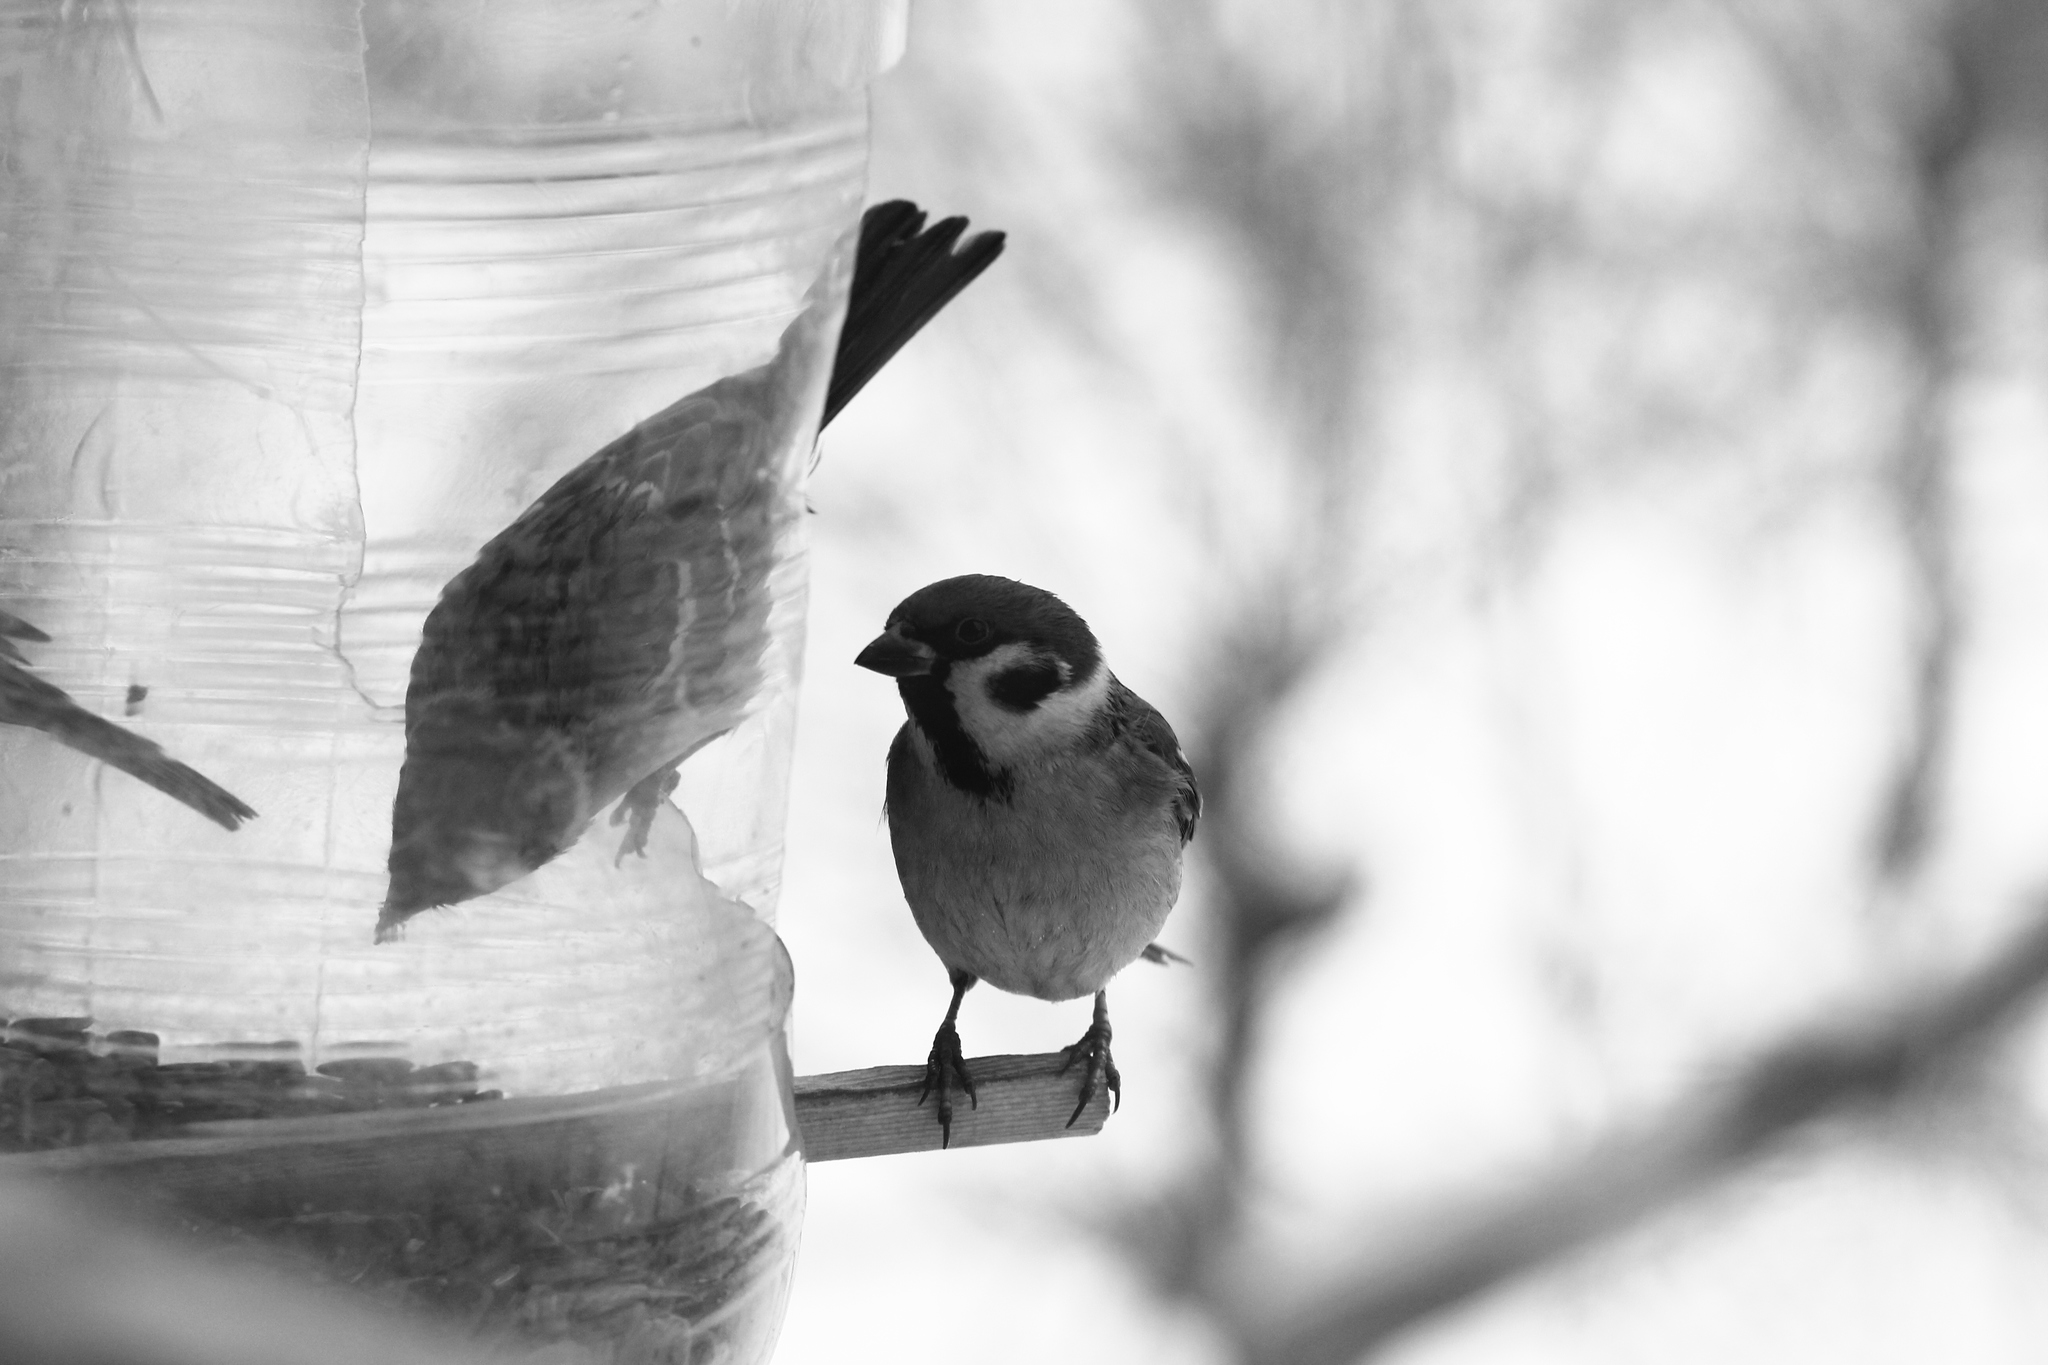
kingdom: Animalia
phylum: Chordata
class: Aves
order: Passeriformes
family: Passeridae
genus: Passer
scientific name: Passer montanus
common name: Eurasian tree sparrow
